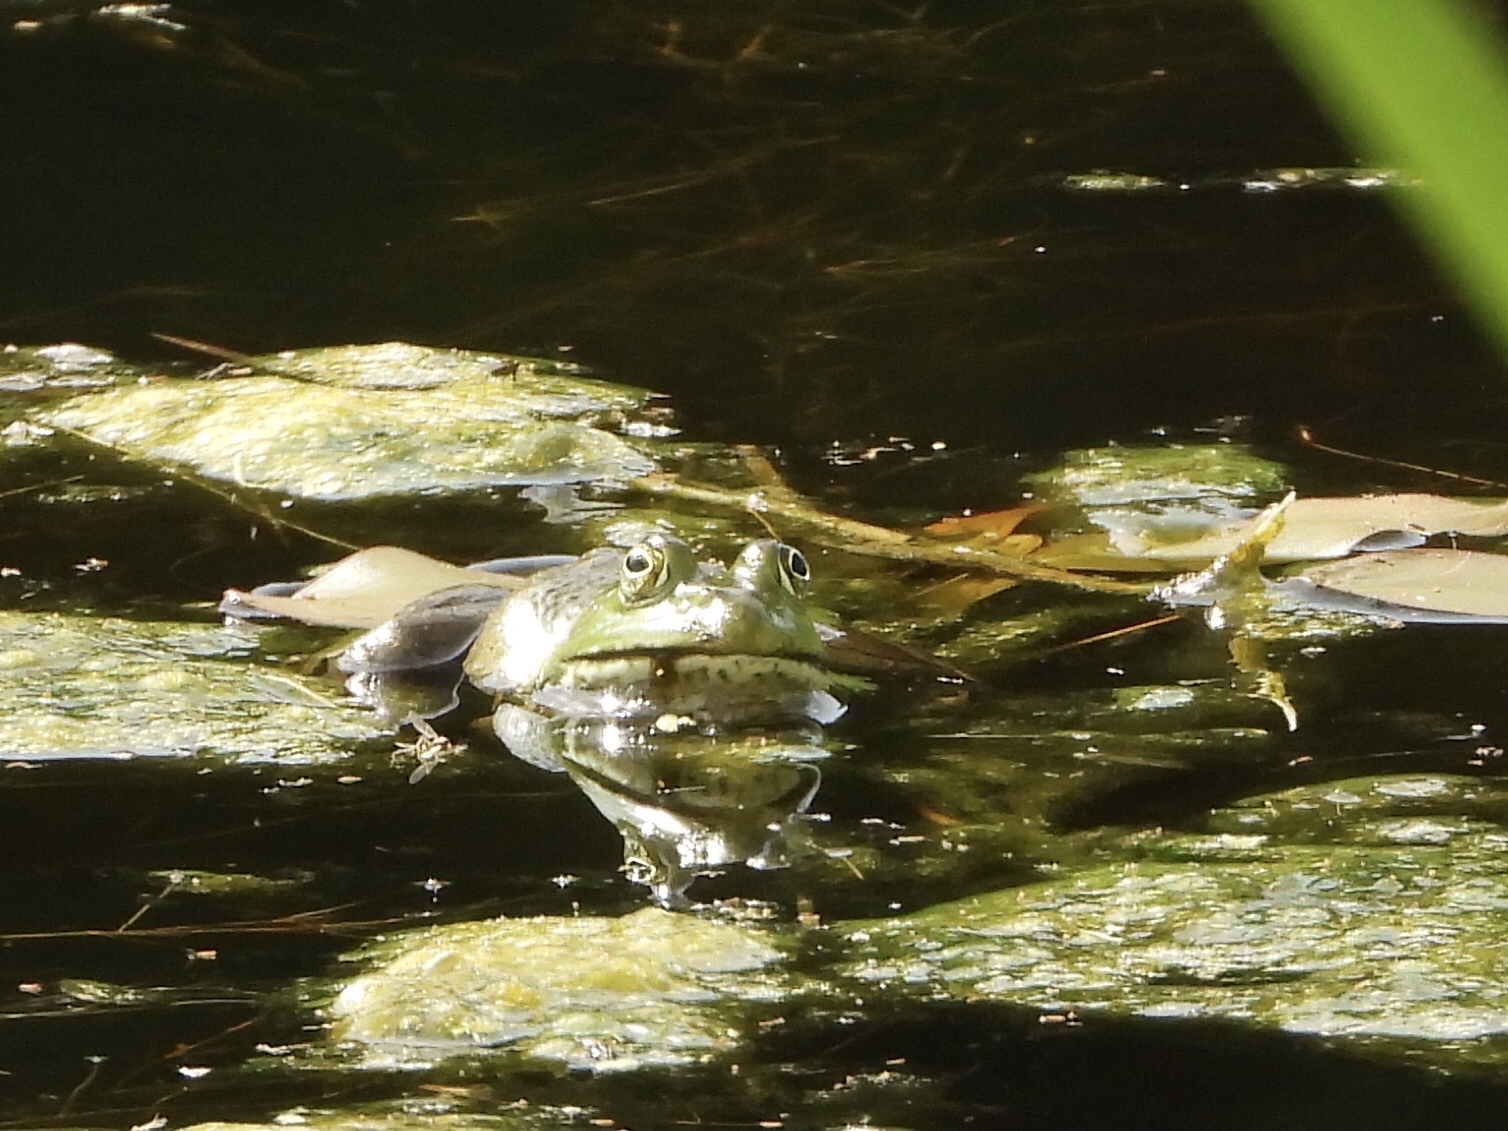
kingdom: Animalia
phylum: Chordata
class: Amphibia
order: Anura
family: Ranidae
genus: Lithobates
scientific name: Lithobates catesbeianus
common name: American bullfrog
